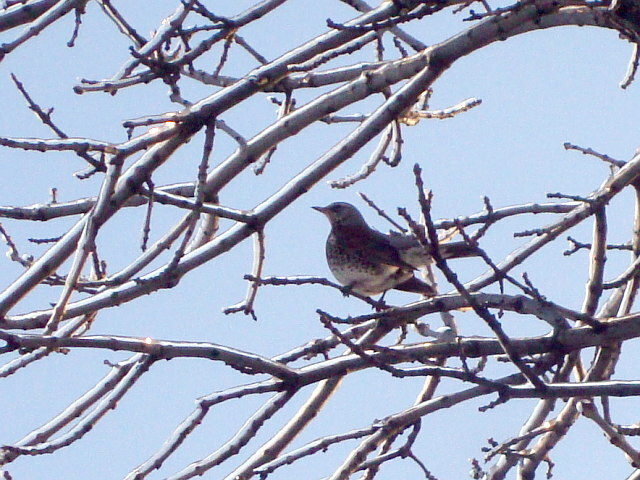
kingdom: Animalia
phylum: Chordata
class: Aves
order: Passeriformes
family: Turdidae
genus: Turdus
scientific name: Turdus pilaris
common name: Fieldfare
